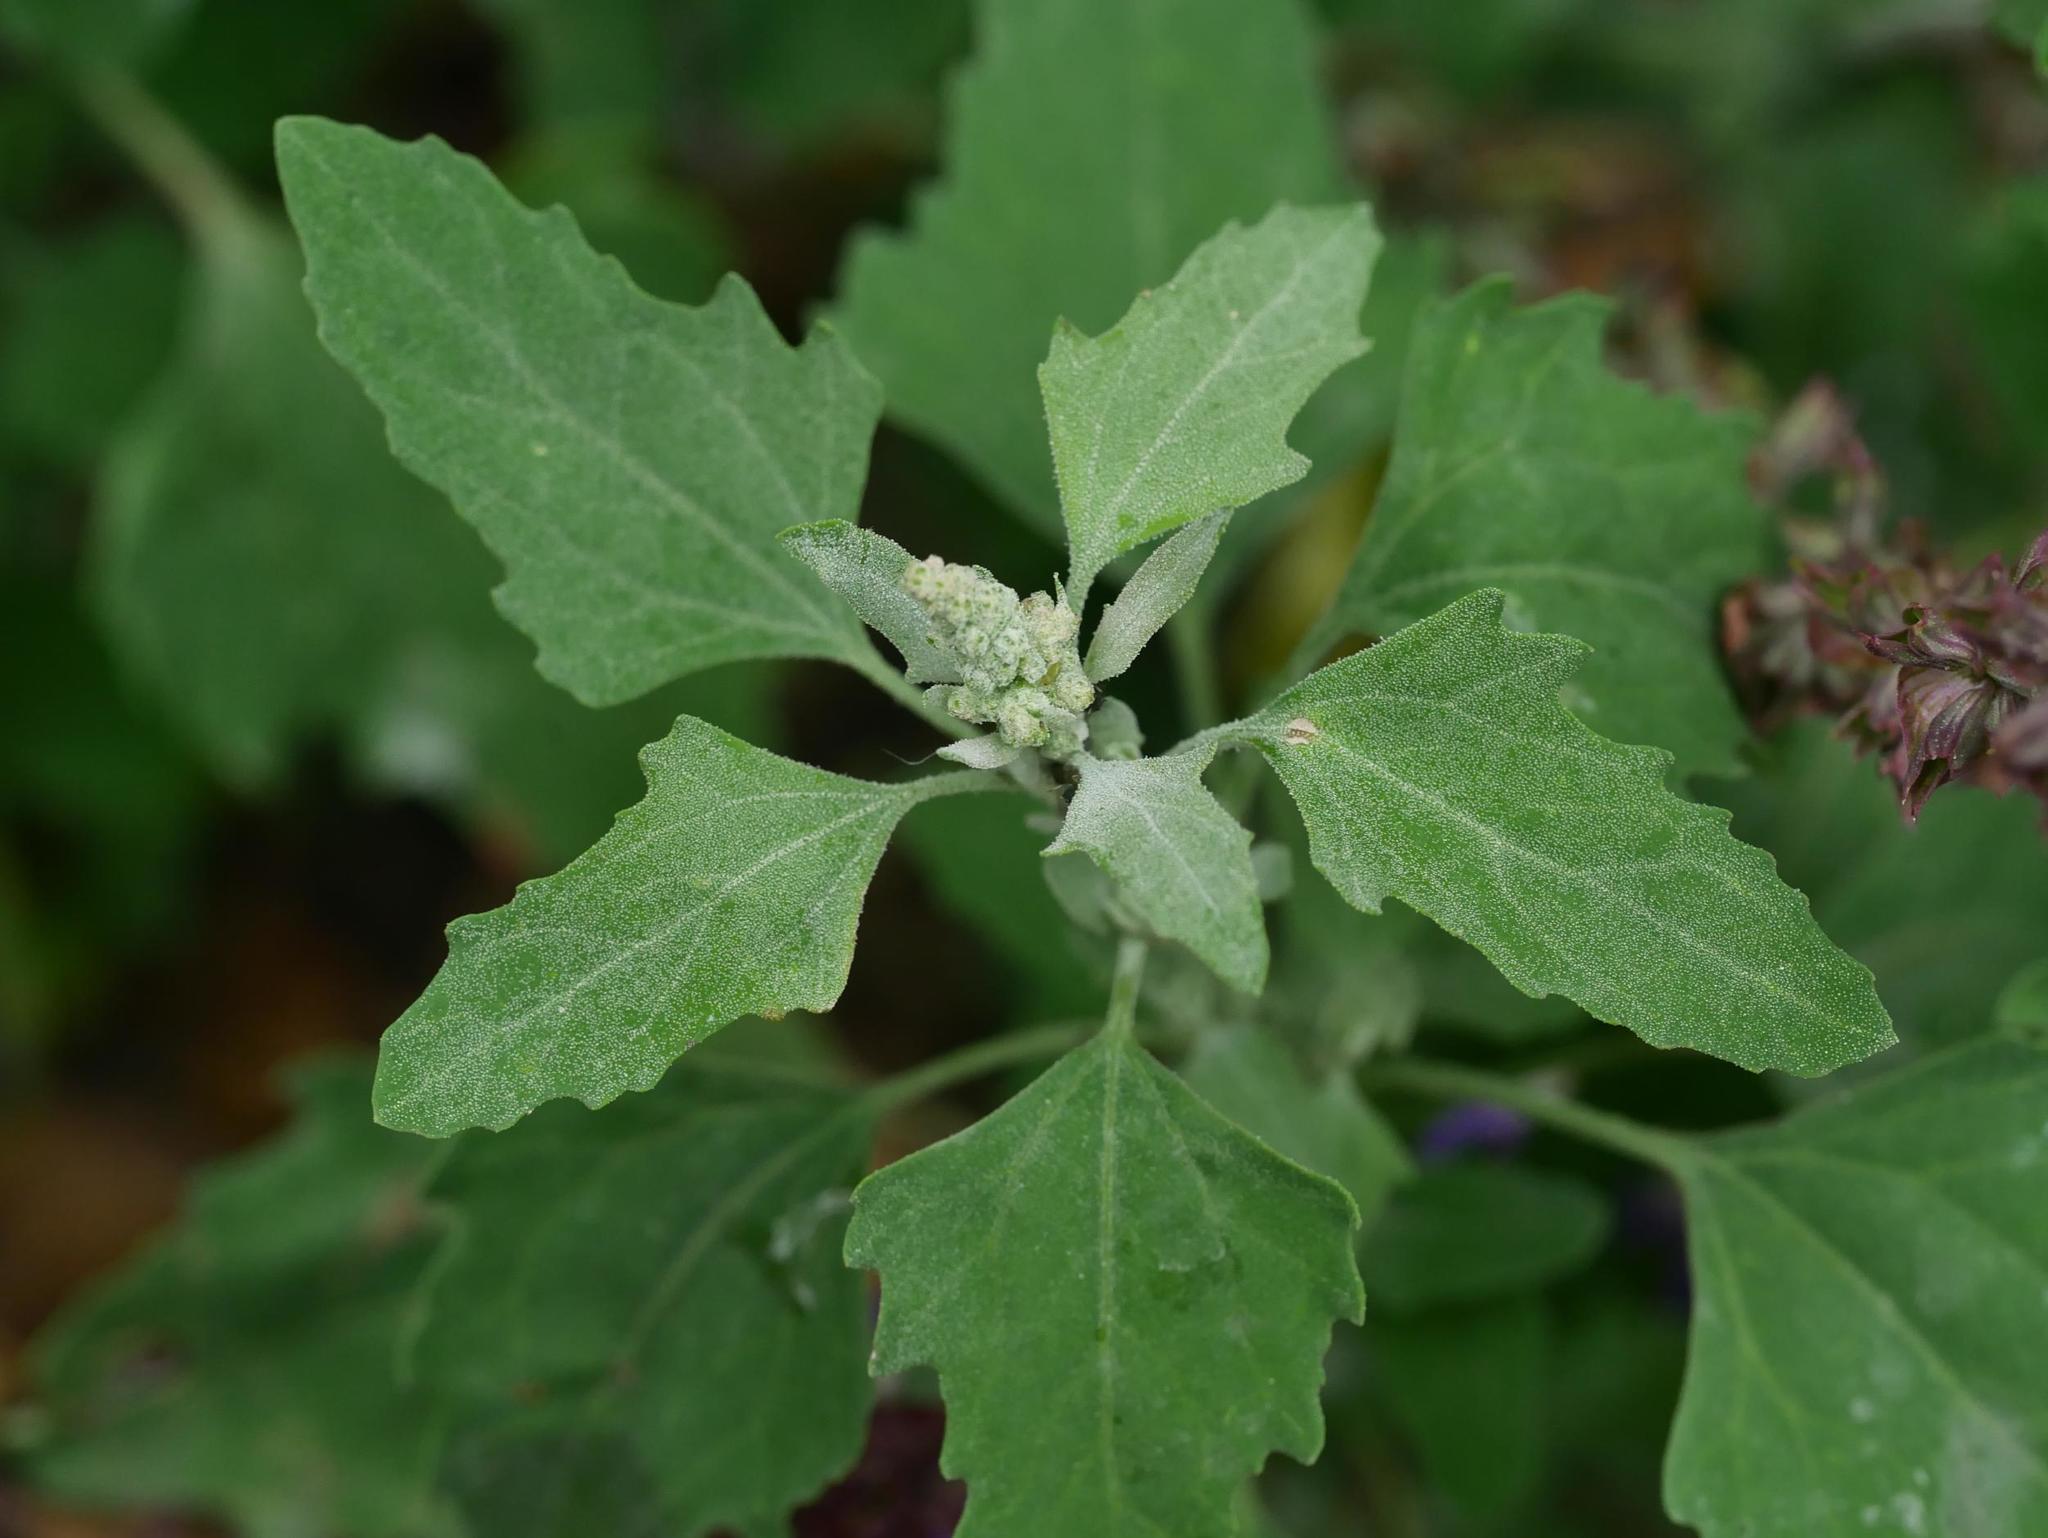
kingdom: Plantae
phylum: Tracheophyta
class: Magnoliopsida
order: Caryophyllales
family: Amaranthaceae
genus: Chenopodium
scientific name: Chenopodium album
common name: Fat-hen
